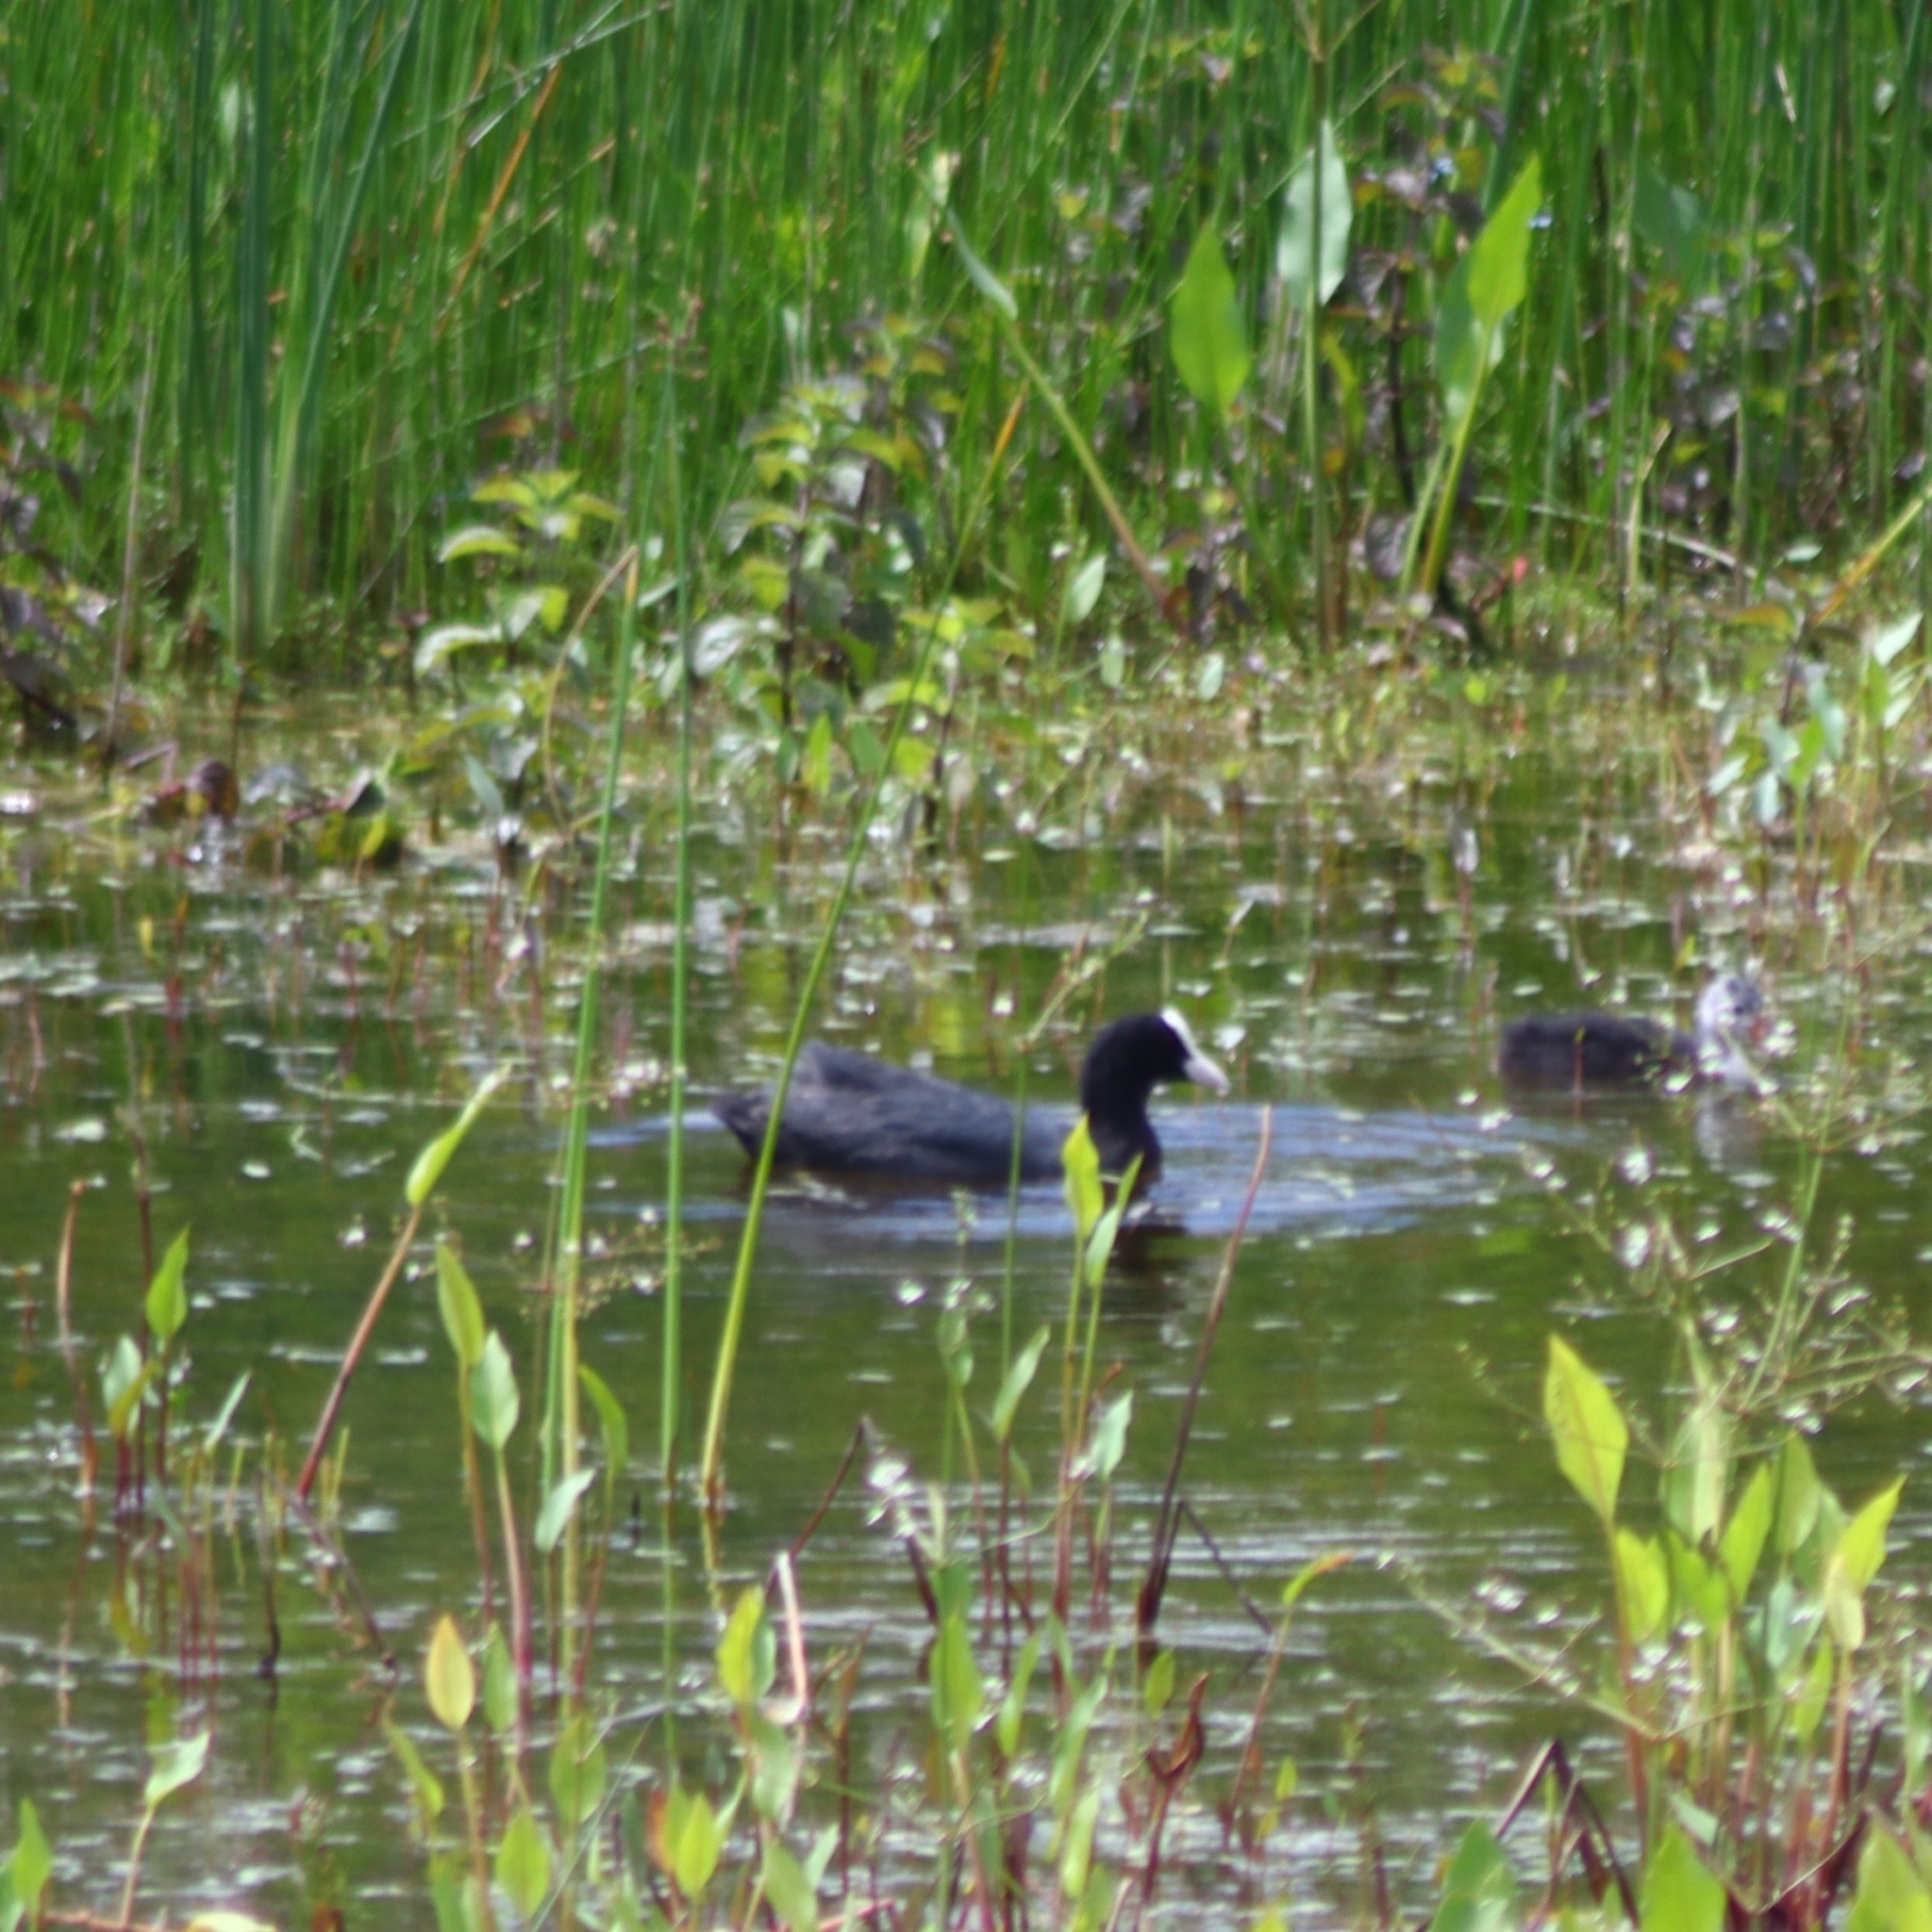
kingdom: Animalia
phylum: Chordata
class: Aves
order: Gruiformes
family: Rallidae
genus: Fulica
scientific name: Fulica atra
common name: Eurasian coot
